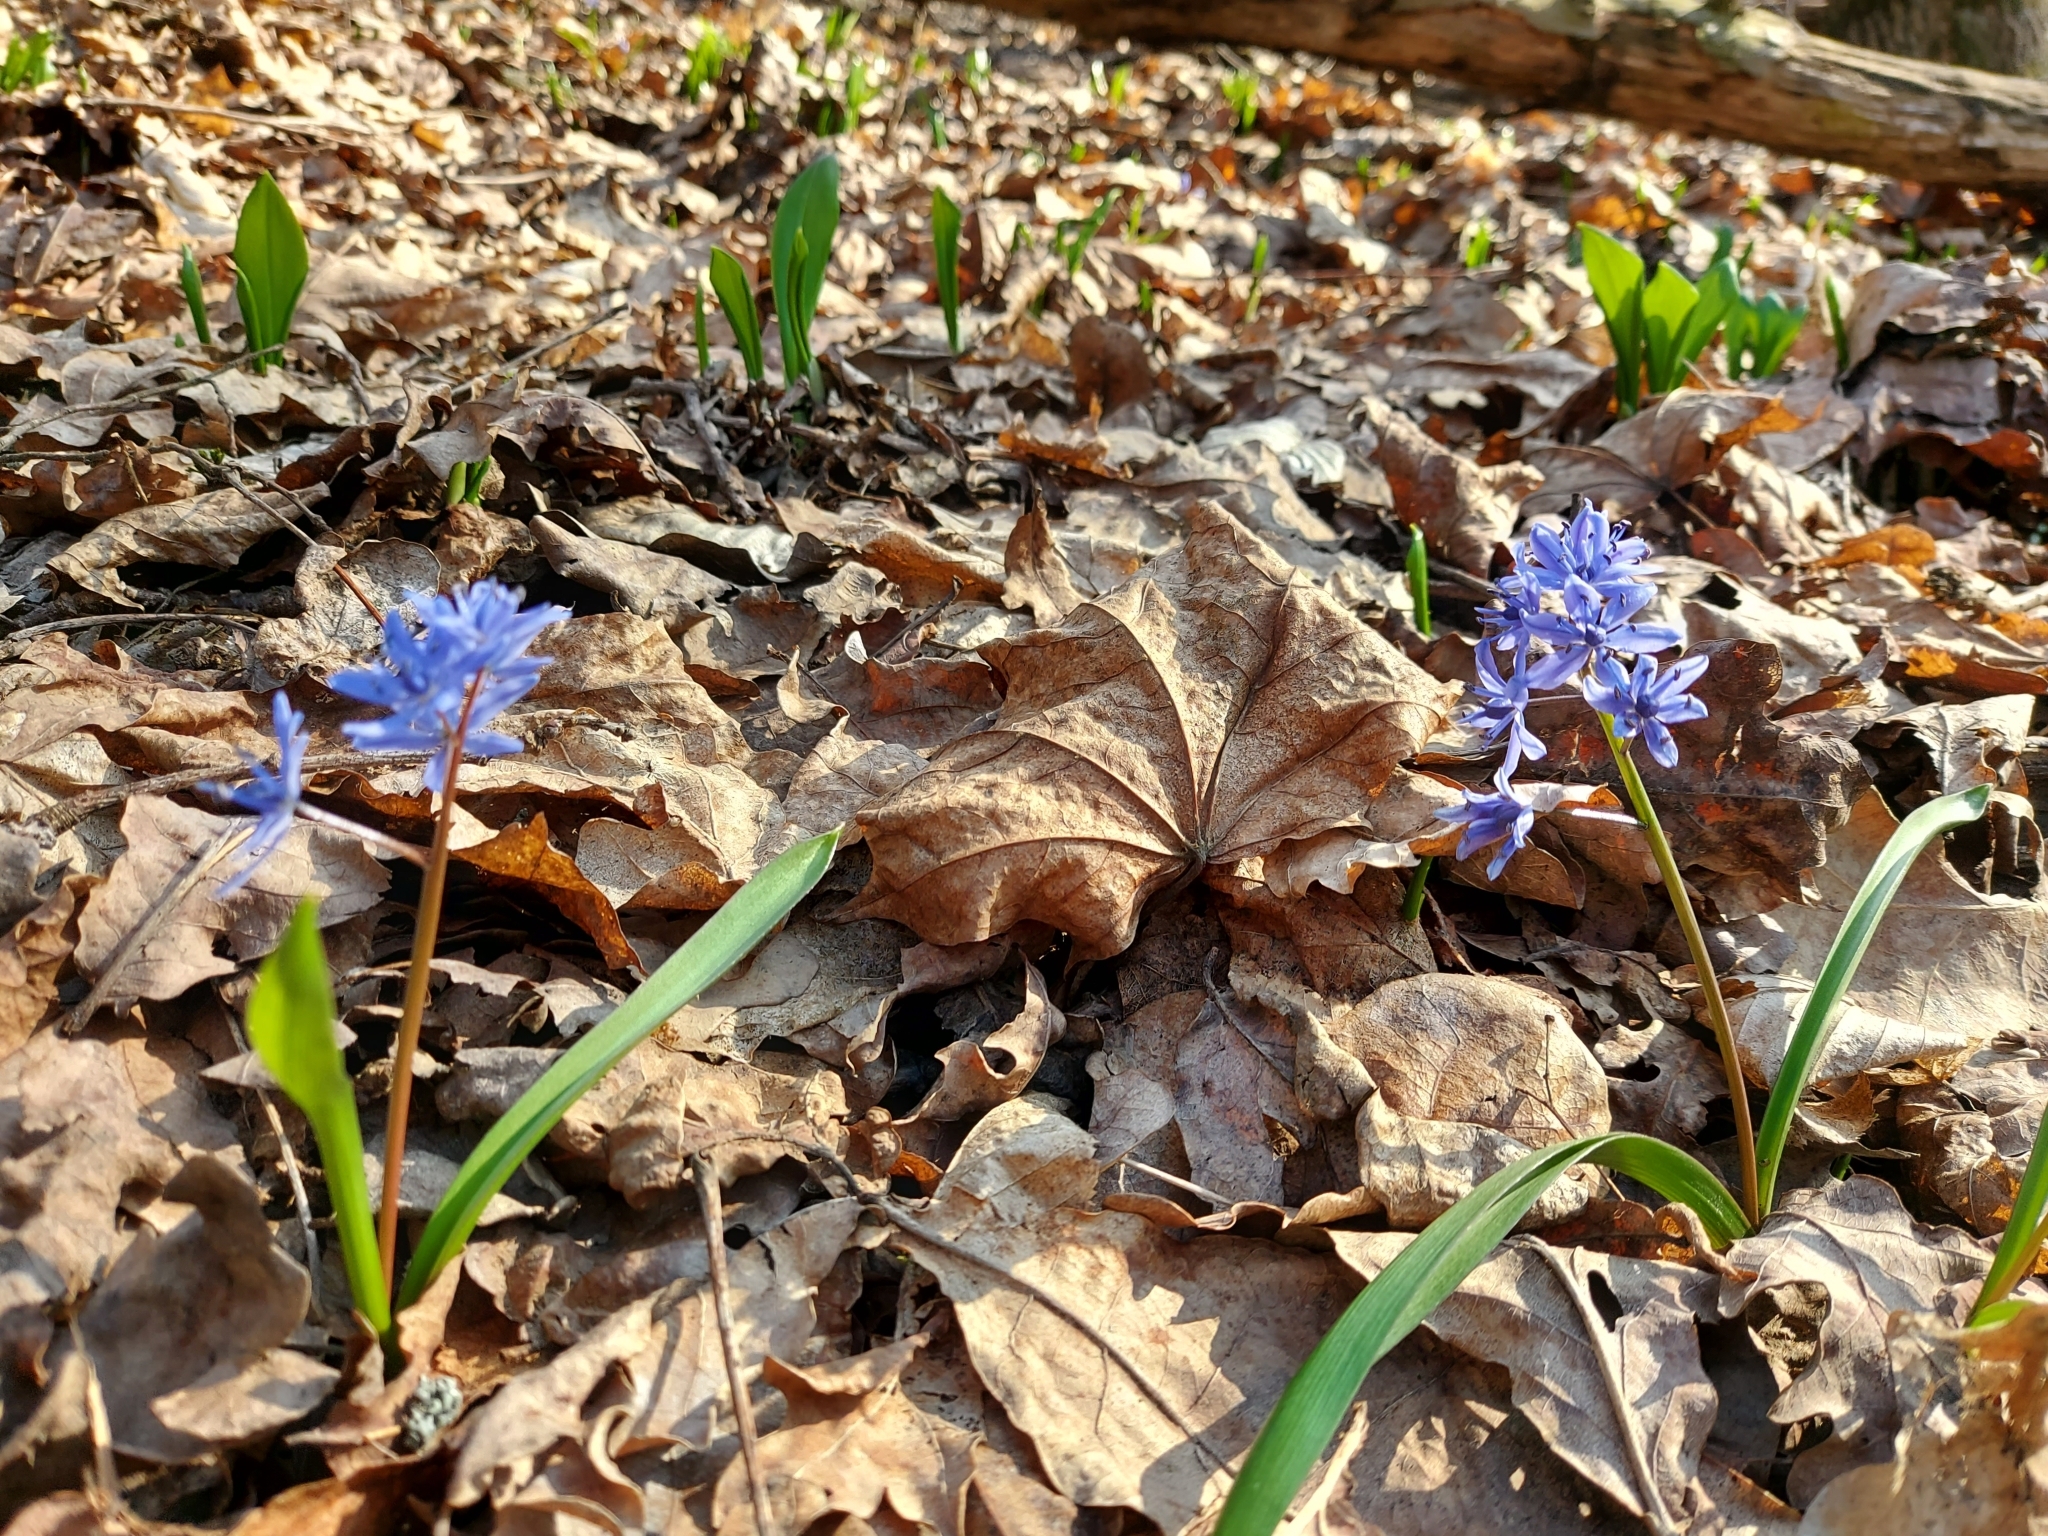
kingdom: Plantae
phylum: Tracheophyta
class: Liliopsida
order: Asparagales
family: Asparagaceae
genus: Scilla
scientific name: Scilla bifolia
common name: Alpine squill
